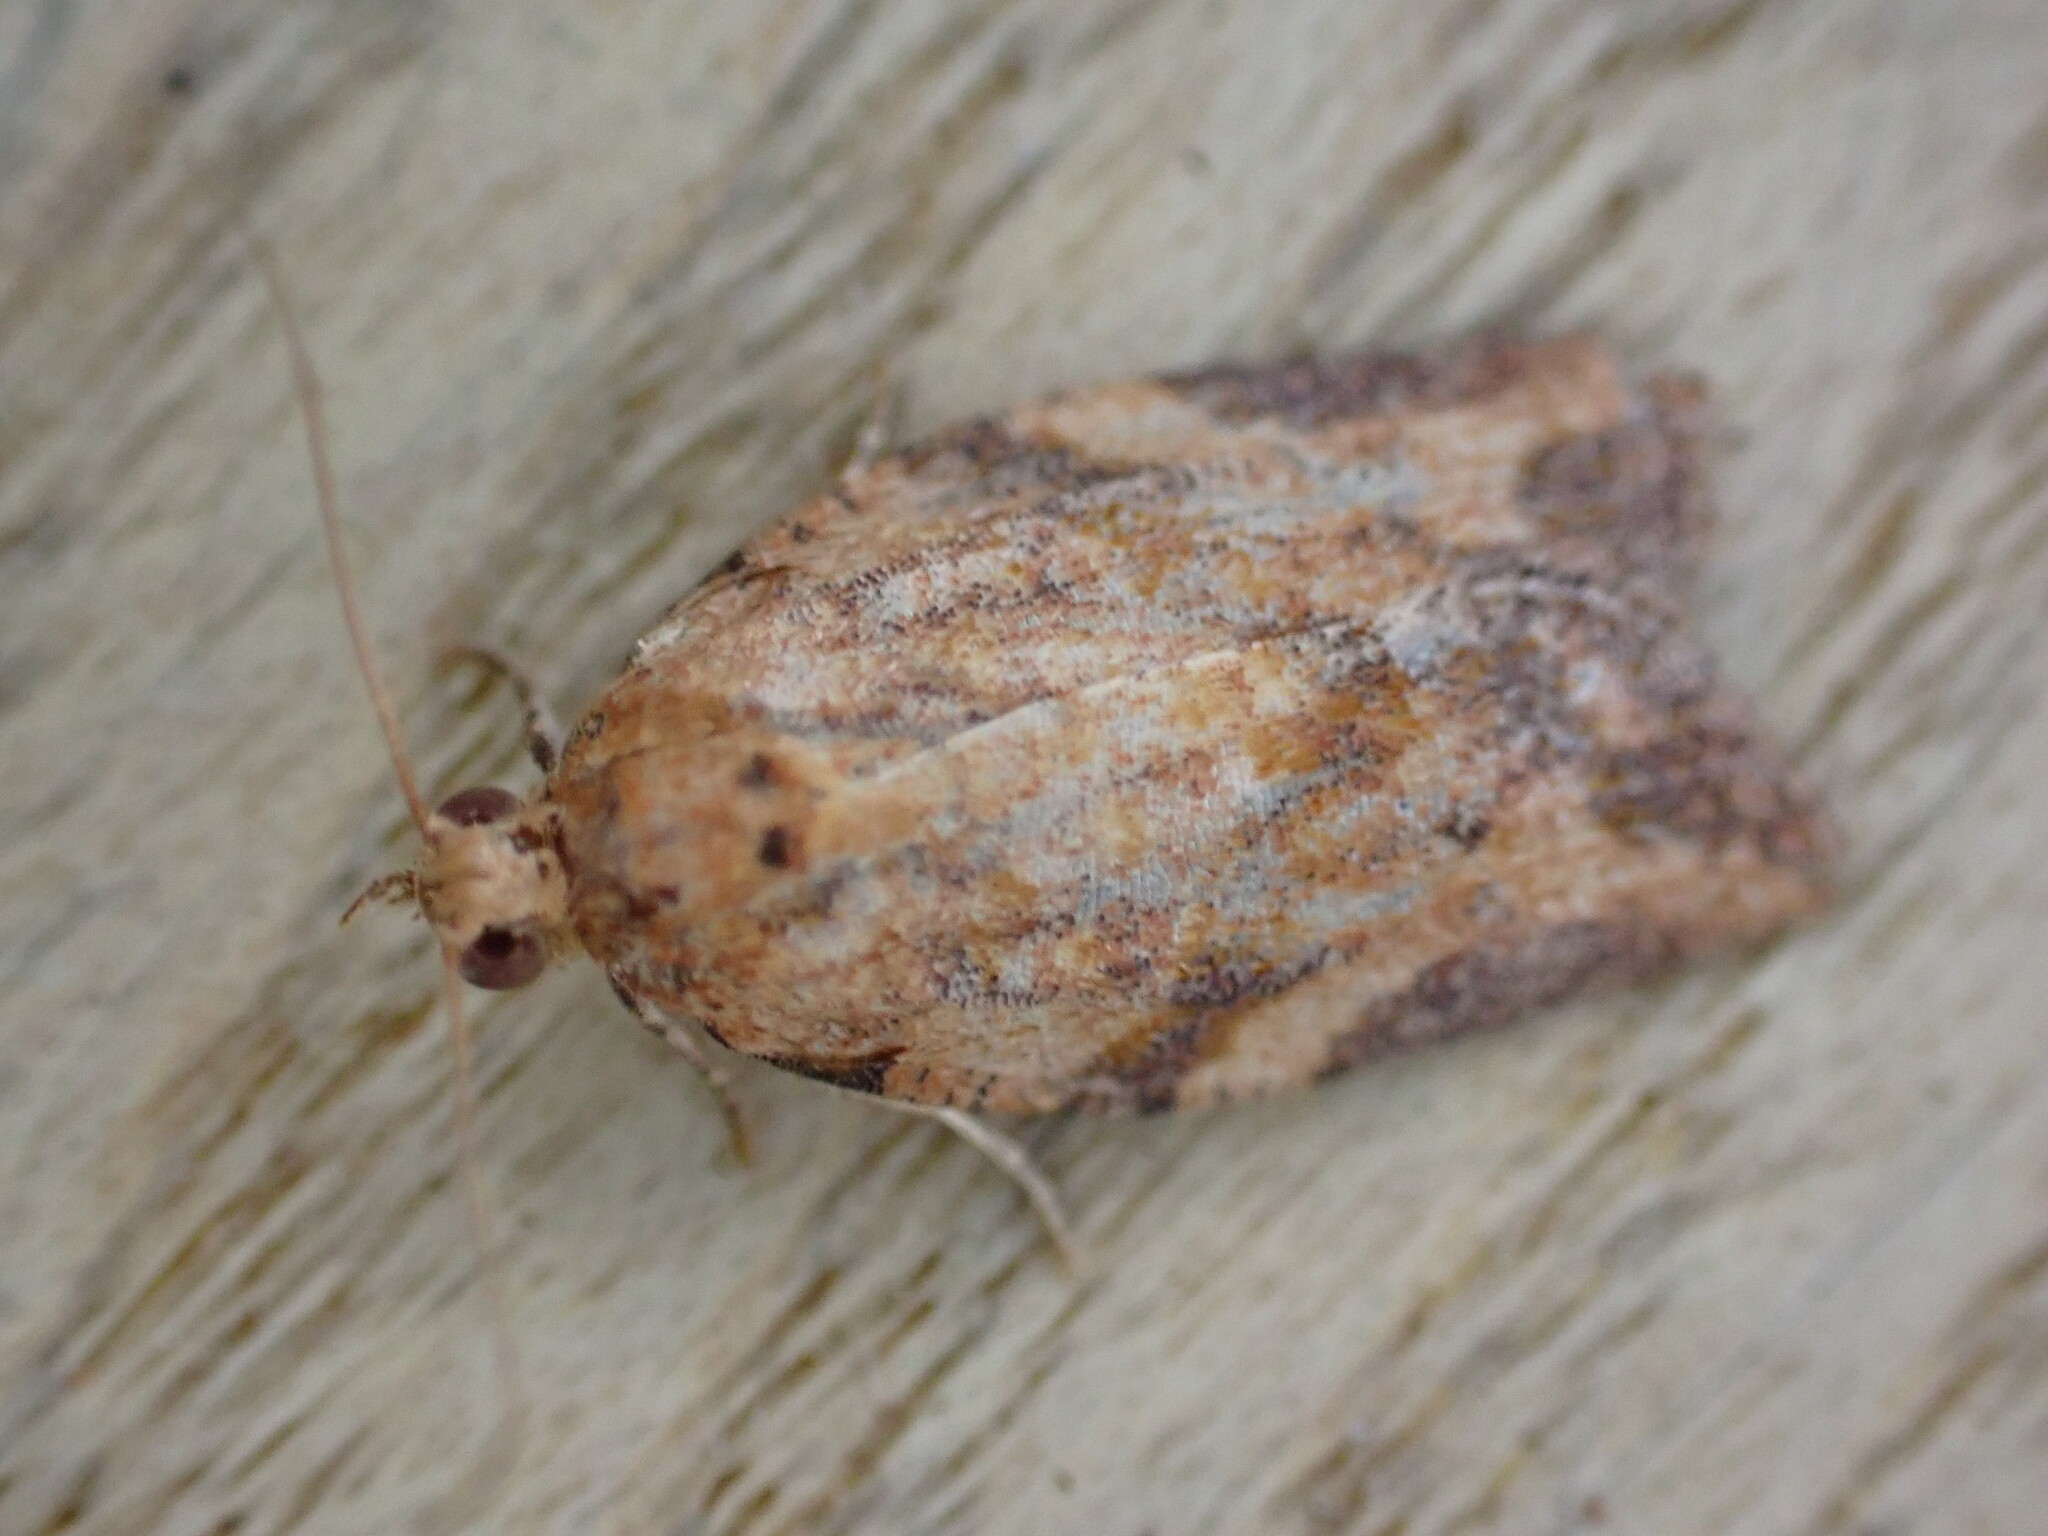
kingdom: Animalia
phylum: Arthropoda
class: Insecta
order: Lepidoptera
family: Tortricidae
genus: Epiphyas
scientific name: Epiphyas postvittana
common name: Light brown apple moth
